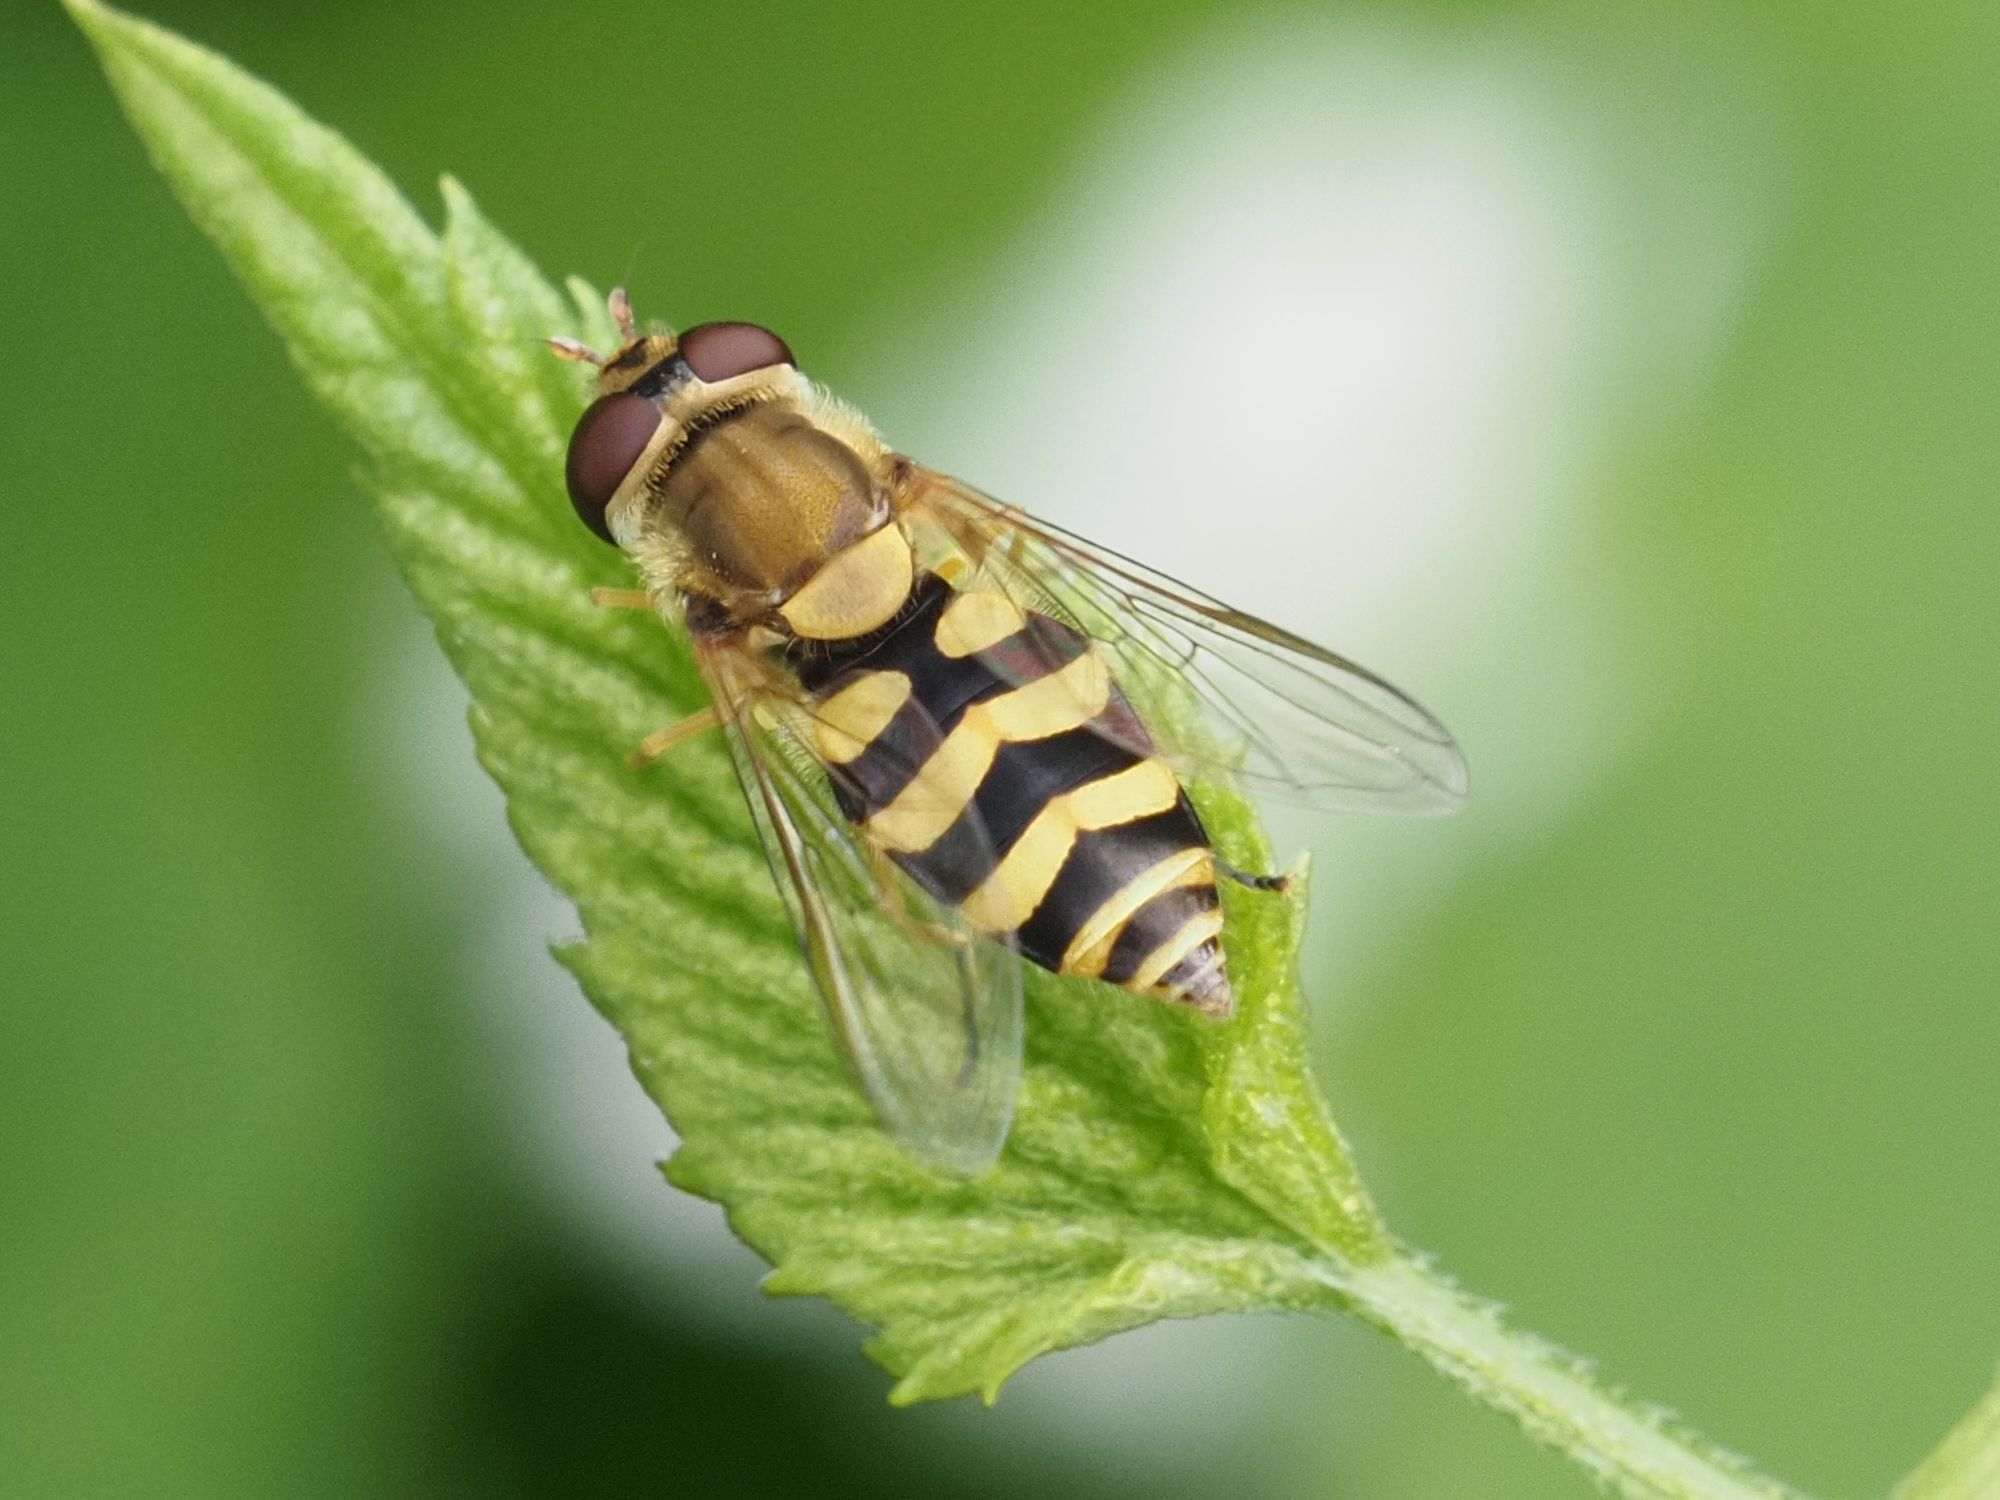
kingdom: Animalia
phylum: Arthropoda
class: Insecta
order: Diptera
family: Syrphidae
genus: Syrphus
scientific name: Syrphus
